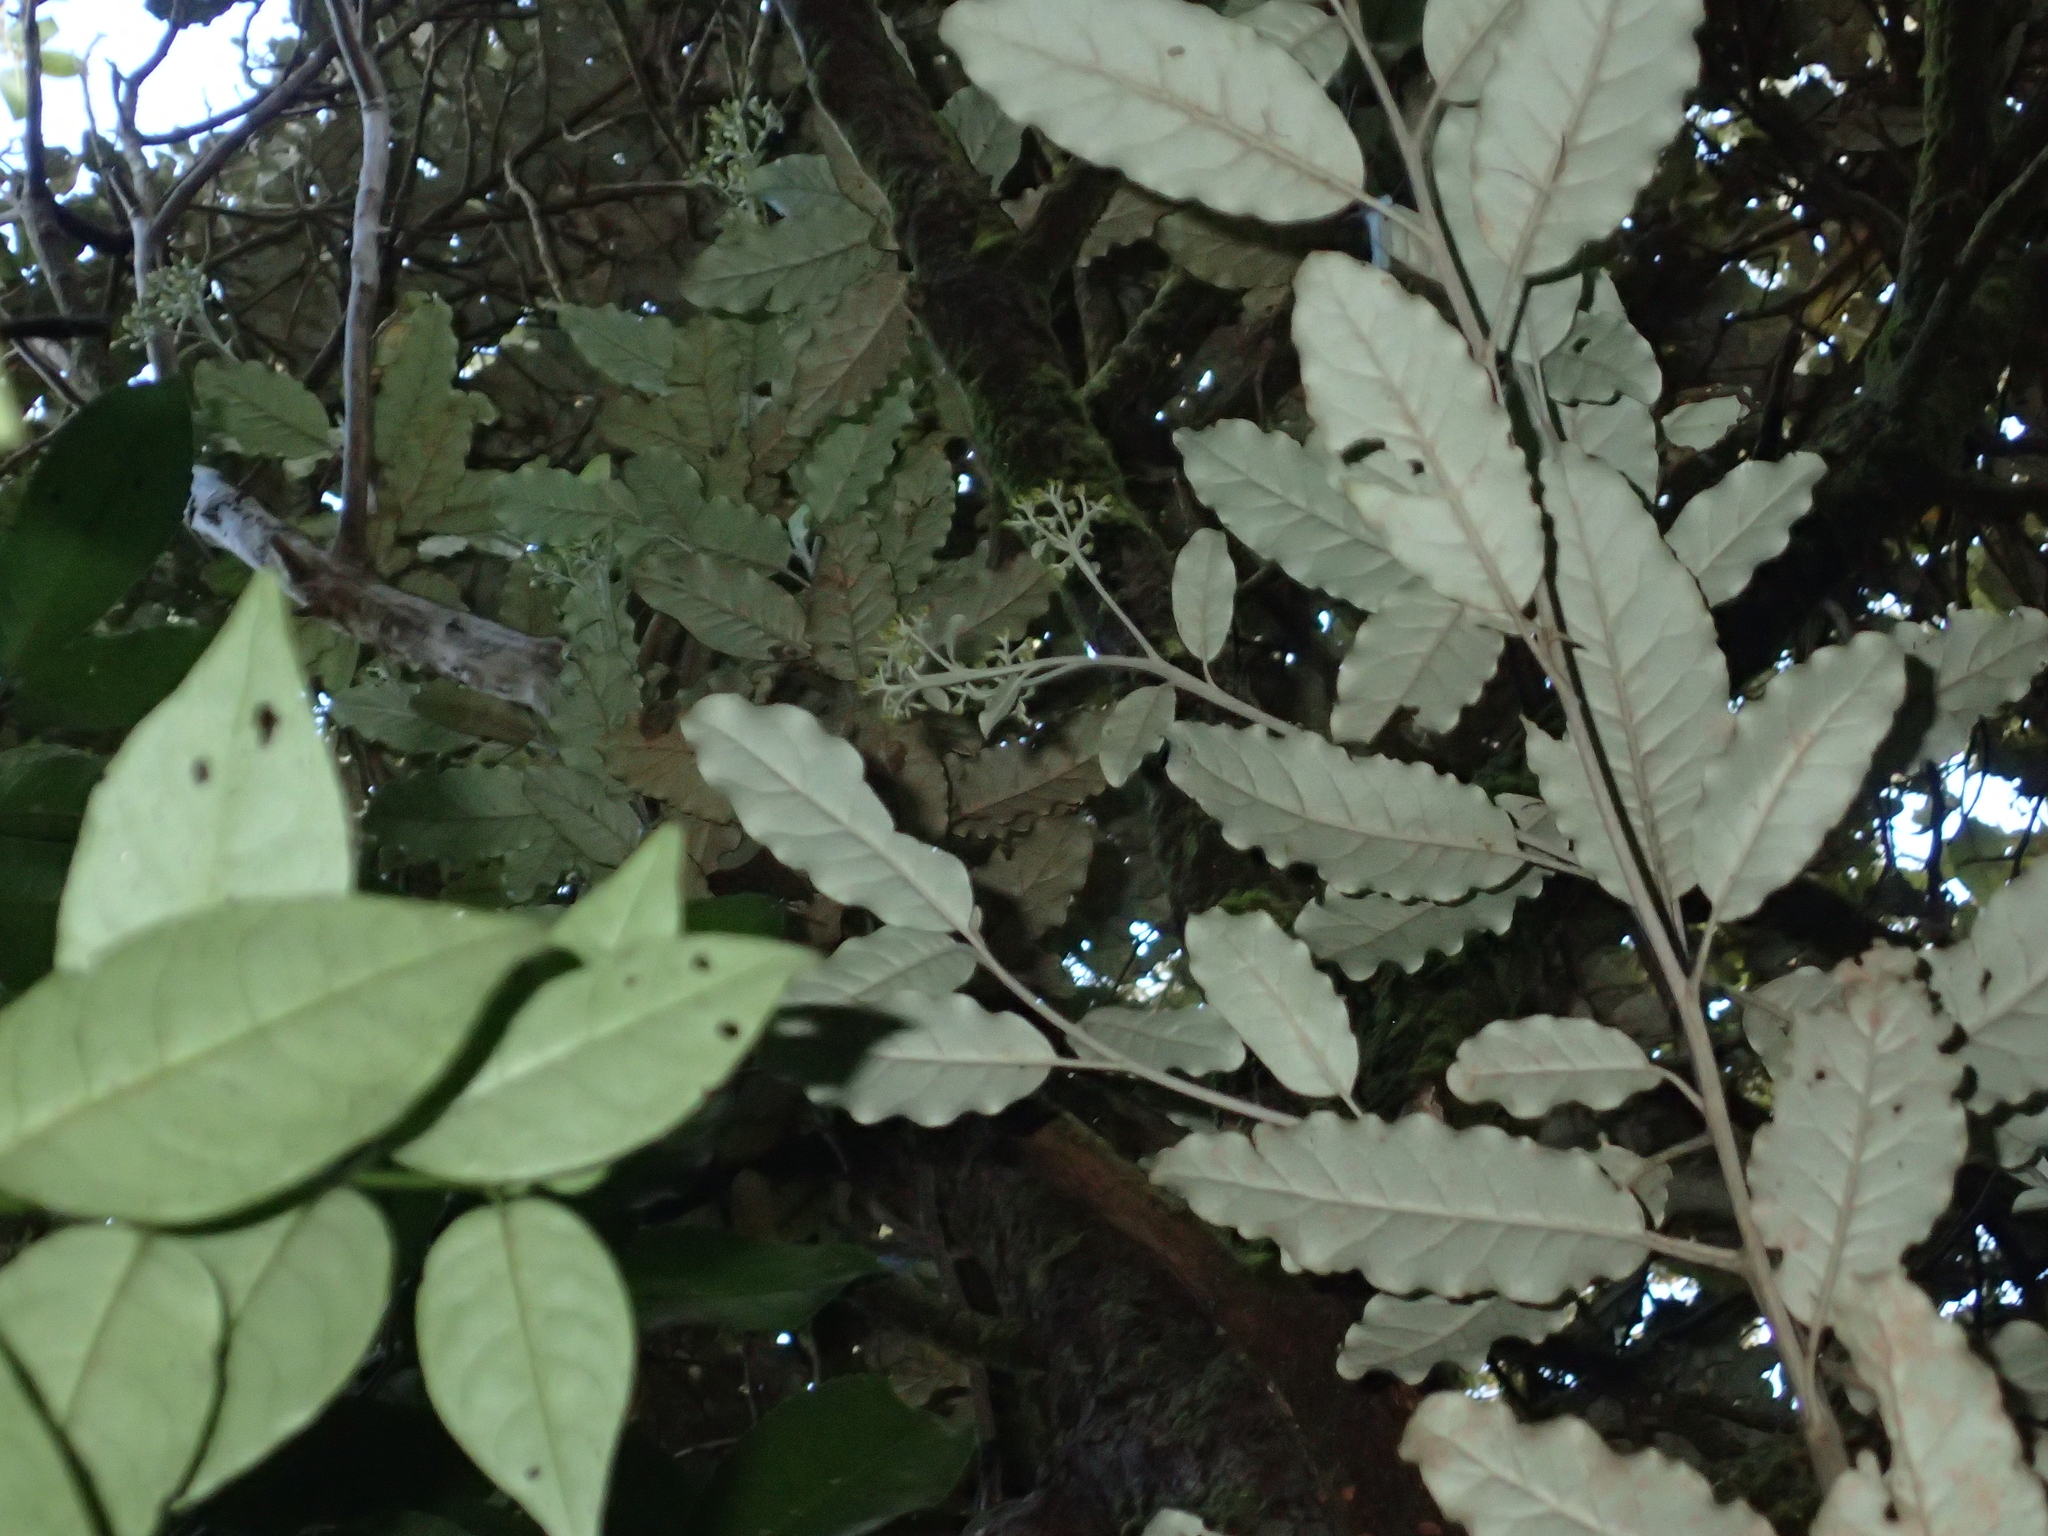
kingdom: Plantae
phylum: Tracheophyta
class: Magnoliopsida
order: Asterales
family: Asteraceae
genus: Olearia
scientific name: Olearia angulata
